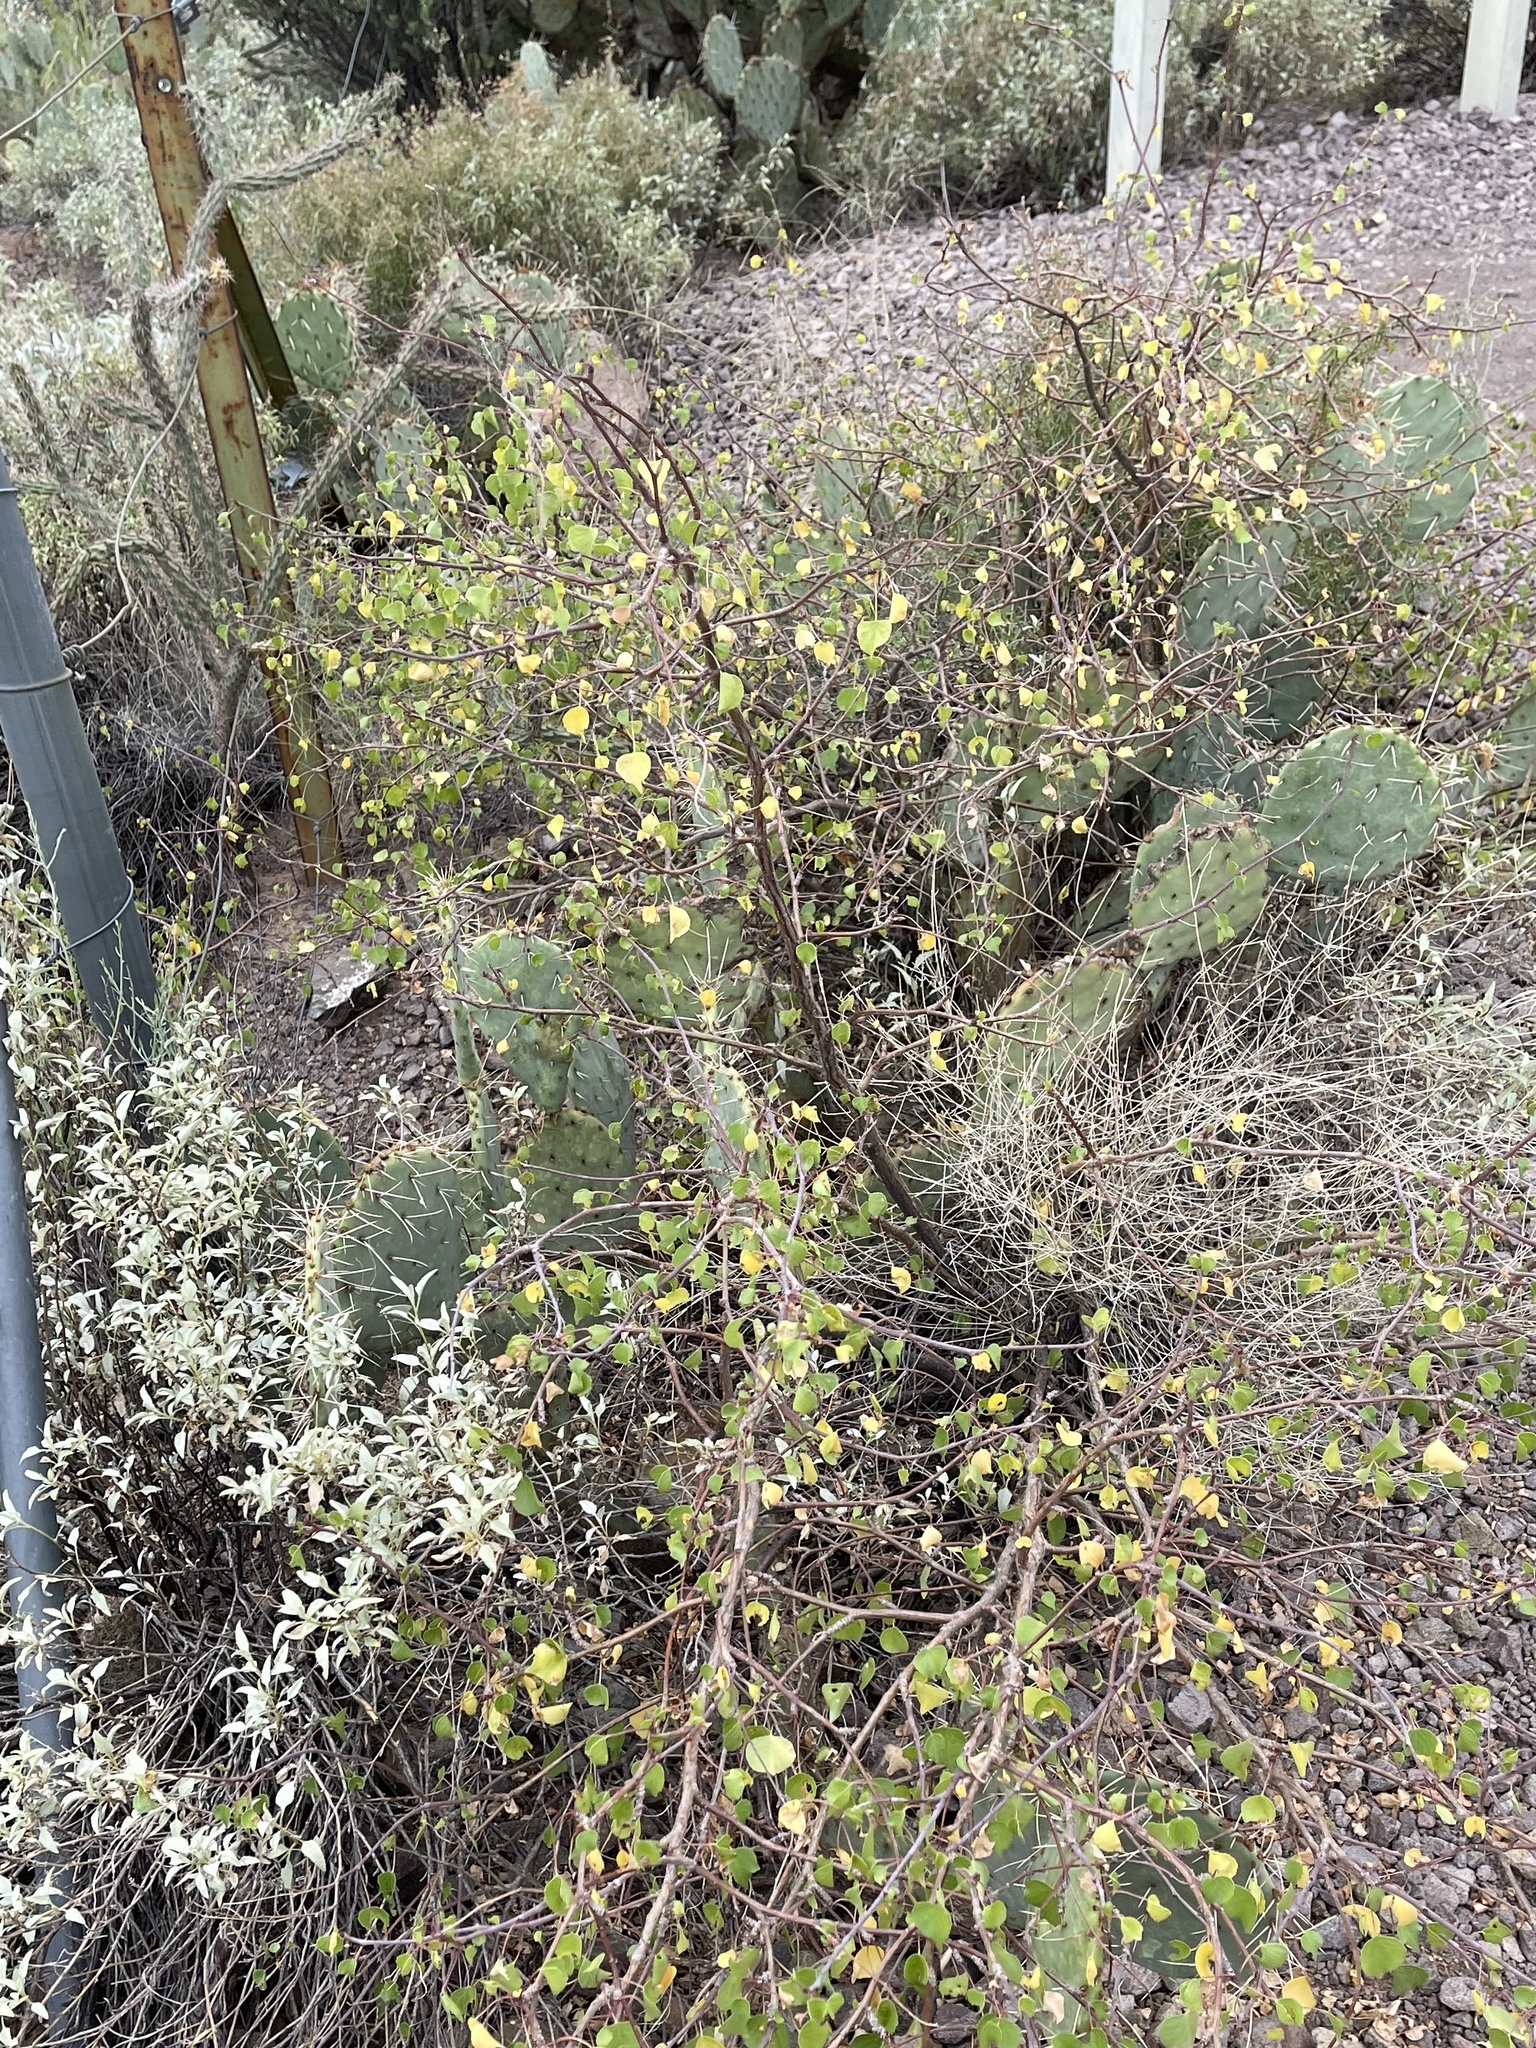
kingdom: Plantae
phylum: Tracheophyta
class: Magnoliopsida
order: Malpighiales
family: Euphorbiaceae
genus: Jatropha
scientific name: Jatropha cardiophylla
